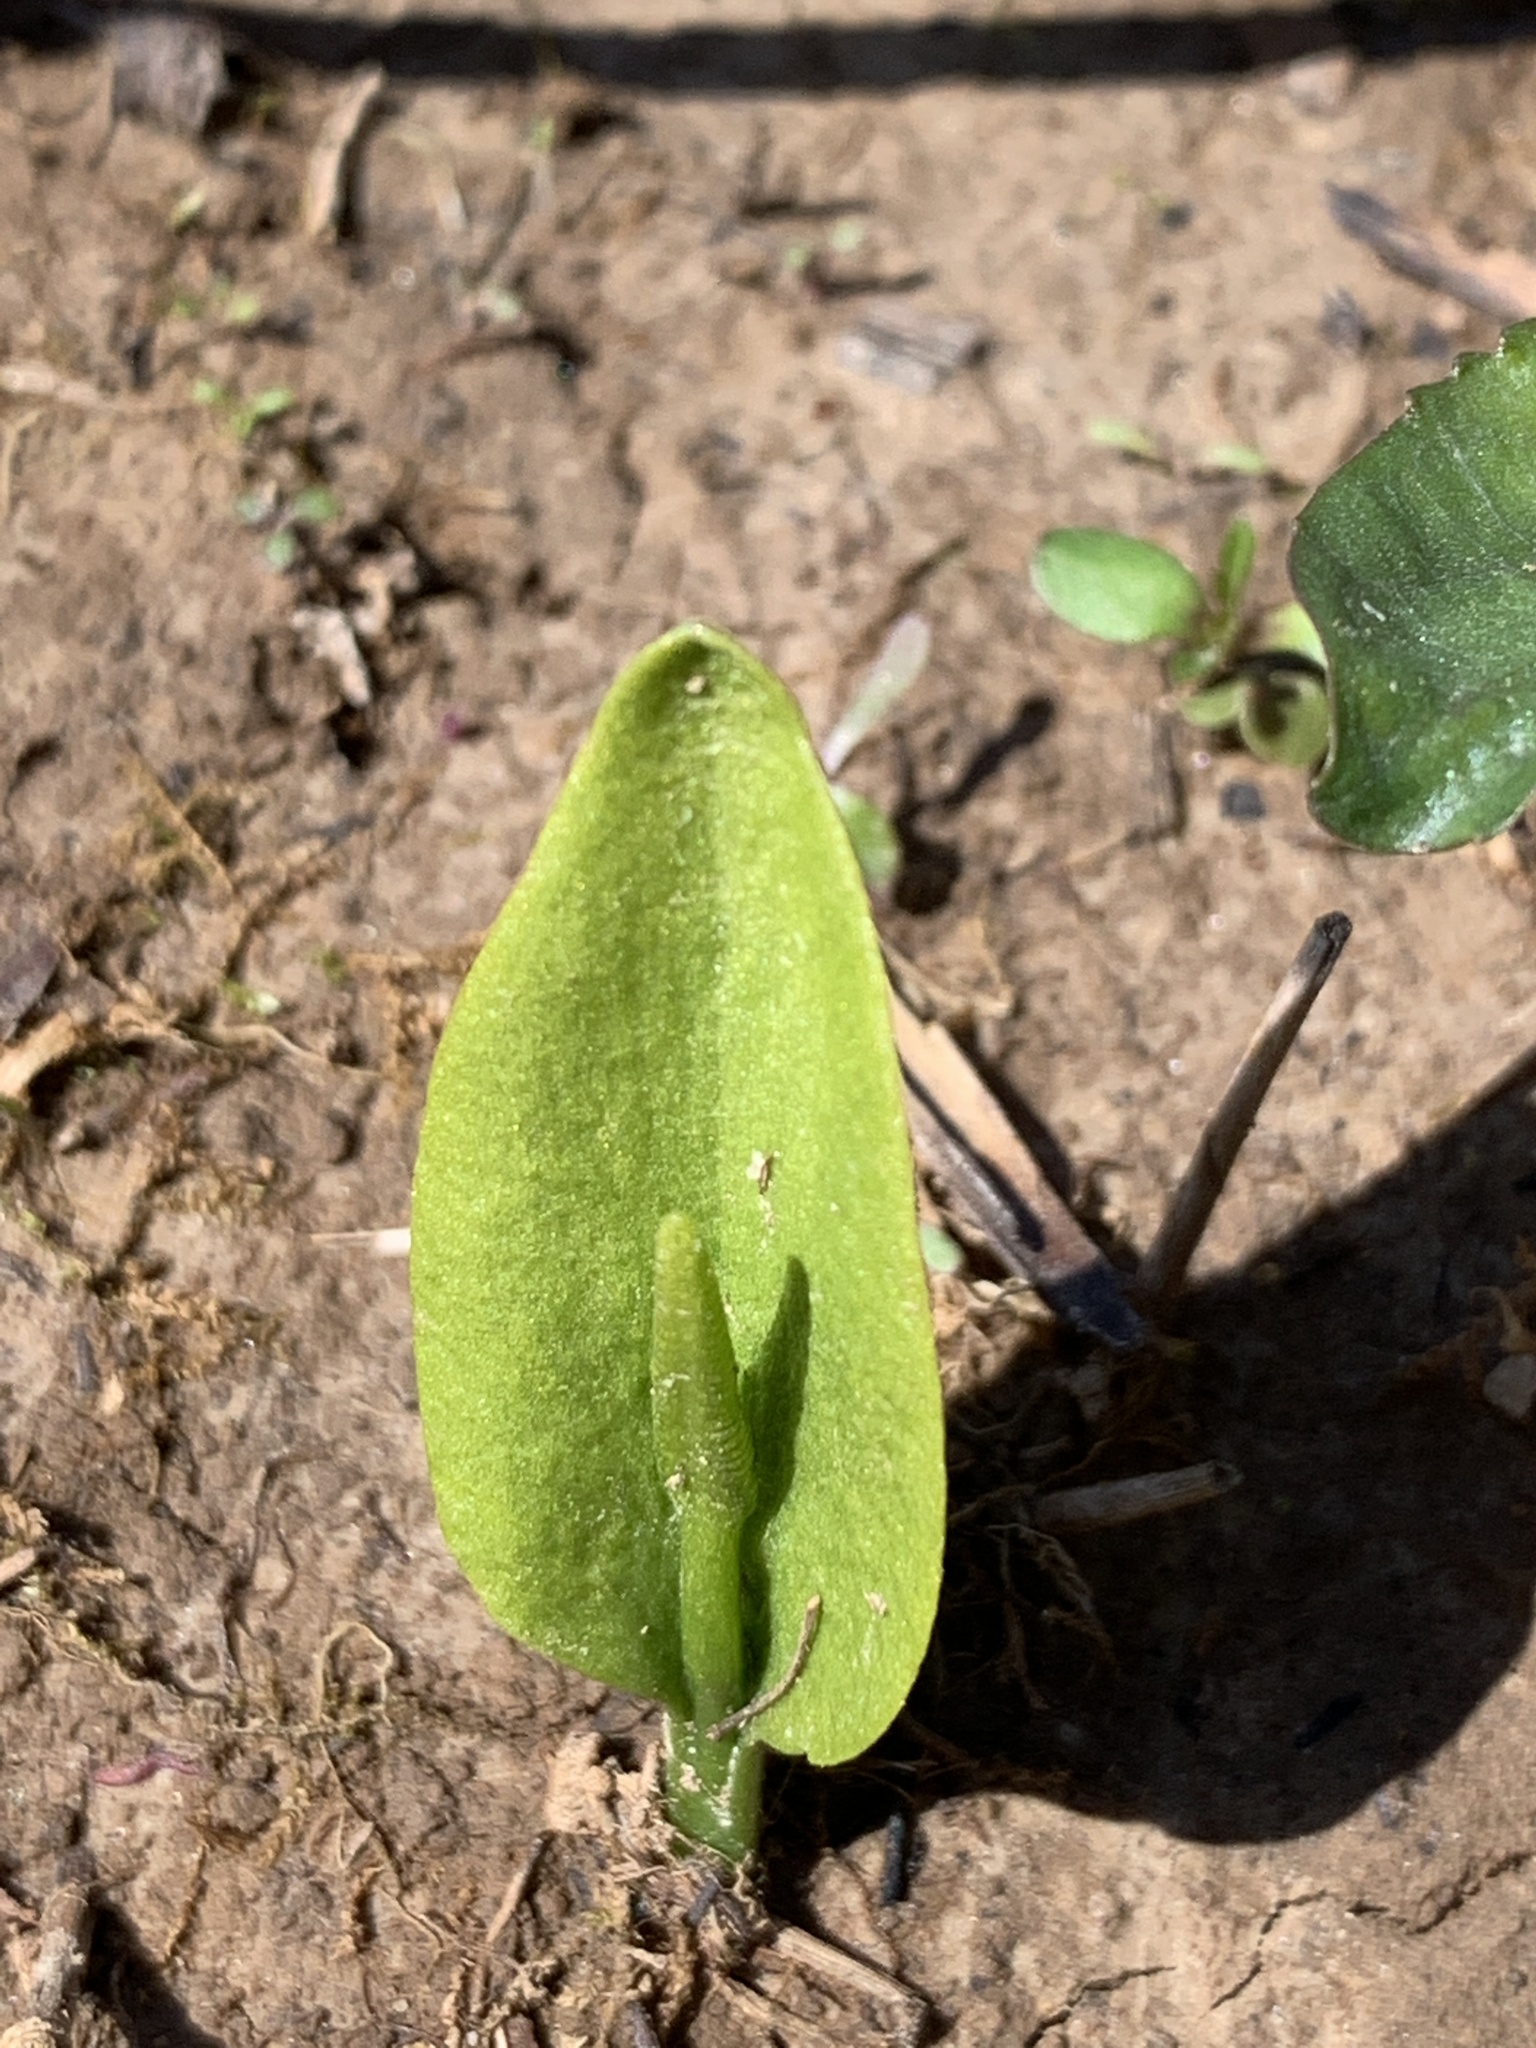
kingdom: Plantae
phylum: Tracheophyta
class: Polypodiopsida
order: Ophioglossales
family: Ophioglossaceae
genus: Ophioglossum
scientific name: Ophioglossum vulgatum
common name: Adder's-tongue
